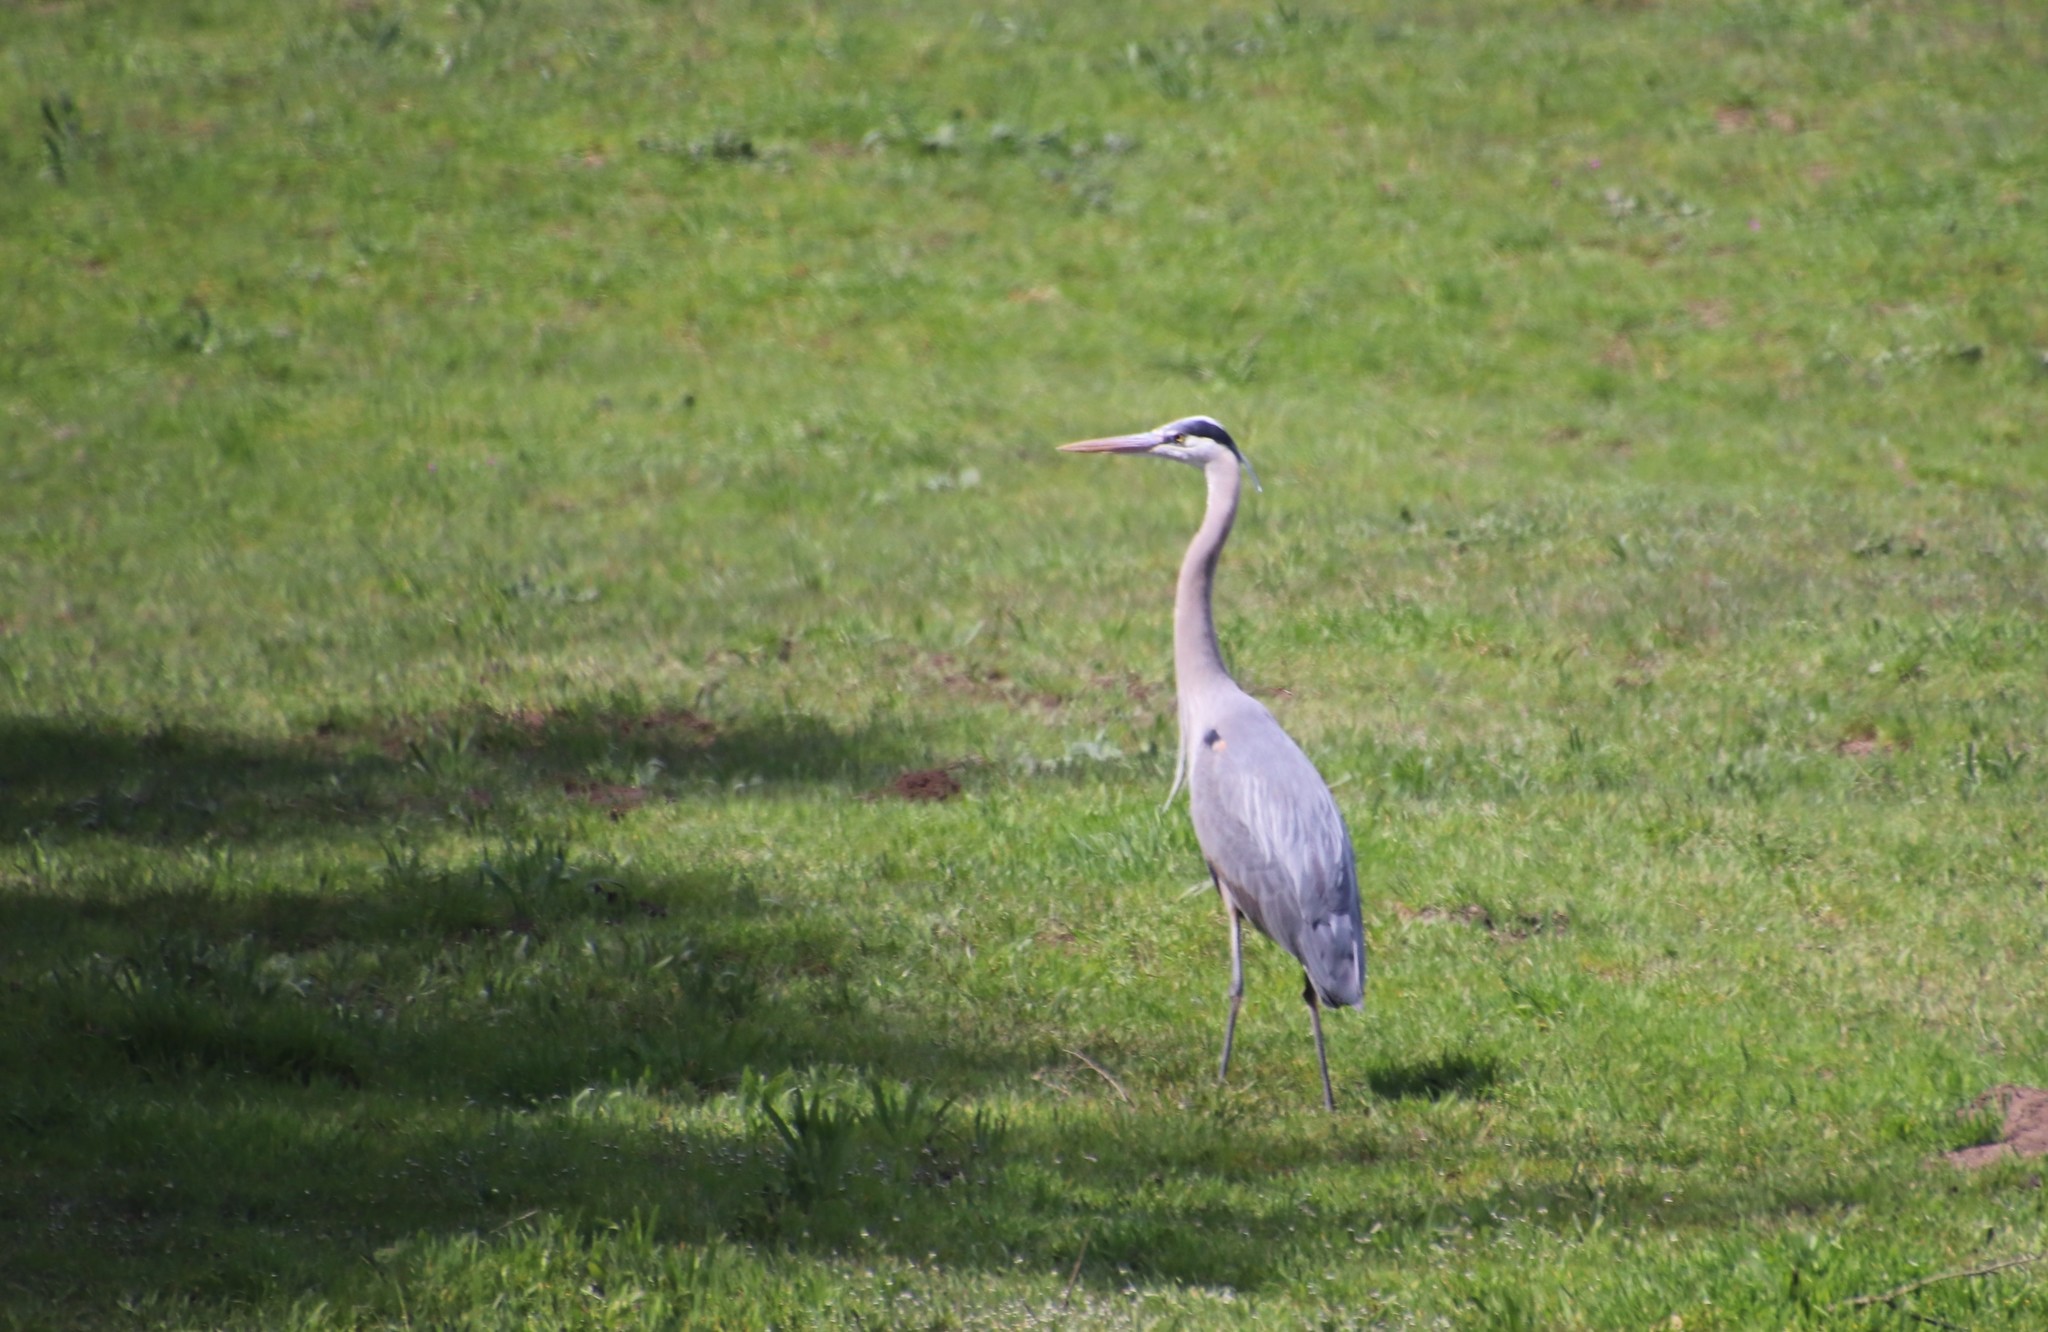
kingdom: Animalia
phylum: Chordata
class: Aves
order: Pelecaniformes
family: Ardeidae
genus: Ardea
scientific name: Ardea herodias
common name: Great blue heron
